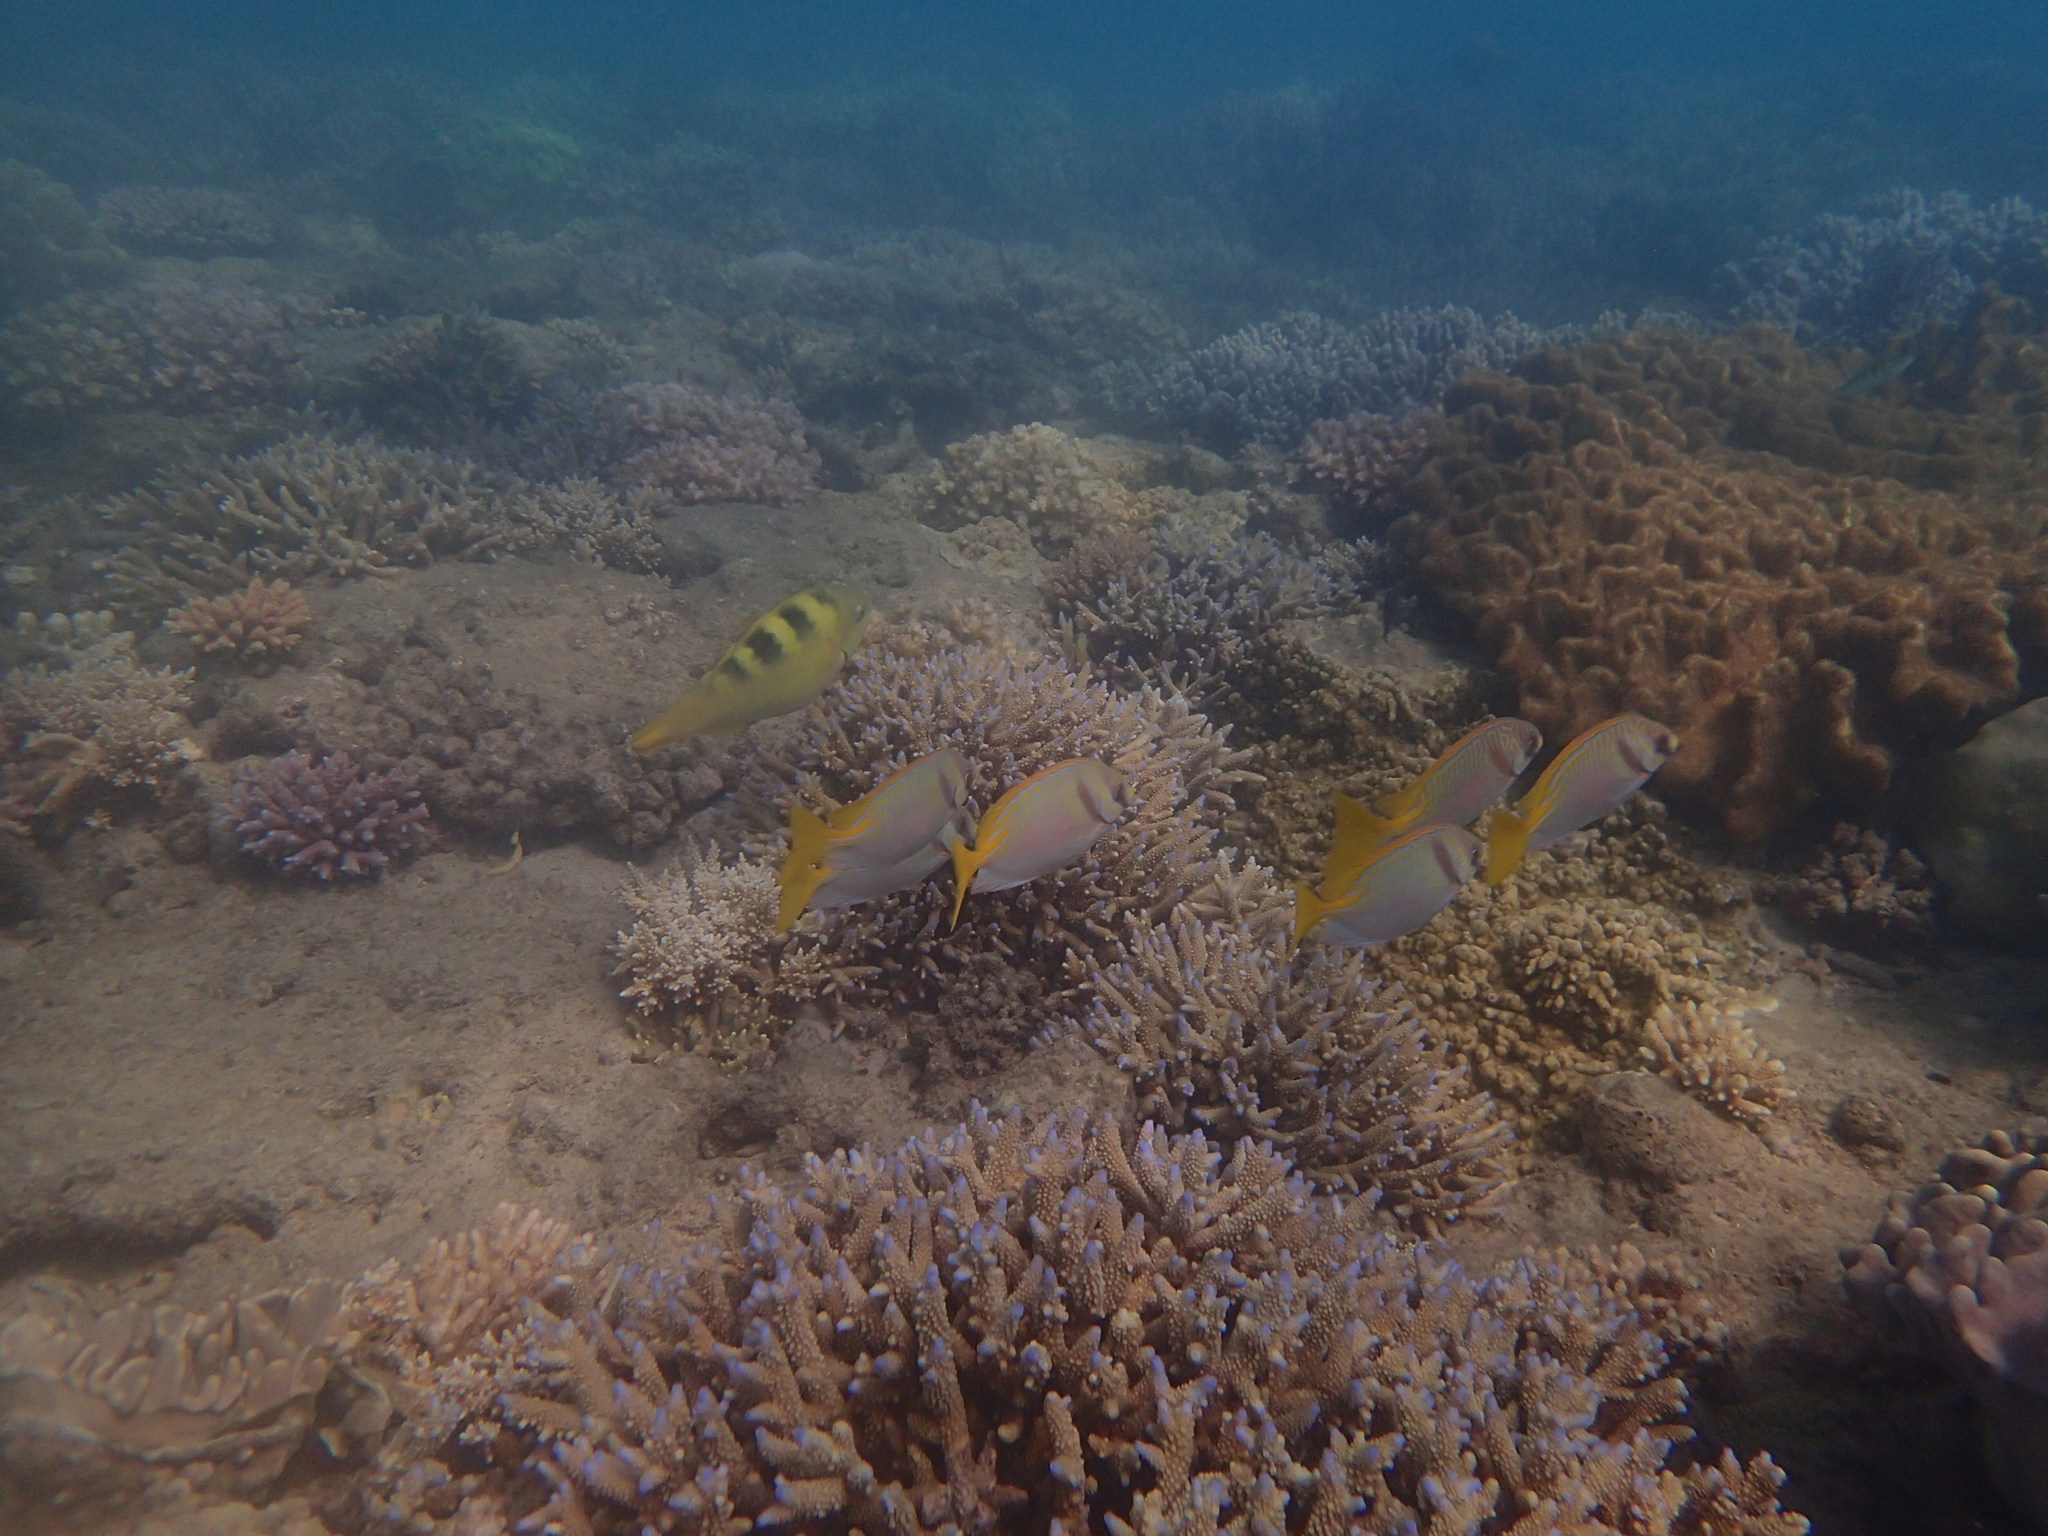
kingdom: Animalia
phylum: Chordata
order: Perciformes
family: Siganidae
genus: Siganus
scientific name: Siganus doliatus
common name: Barred spinefoot
